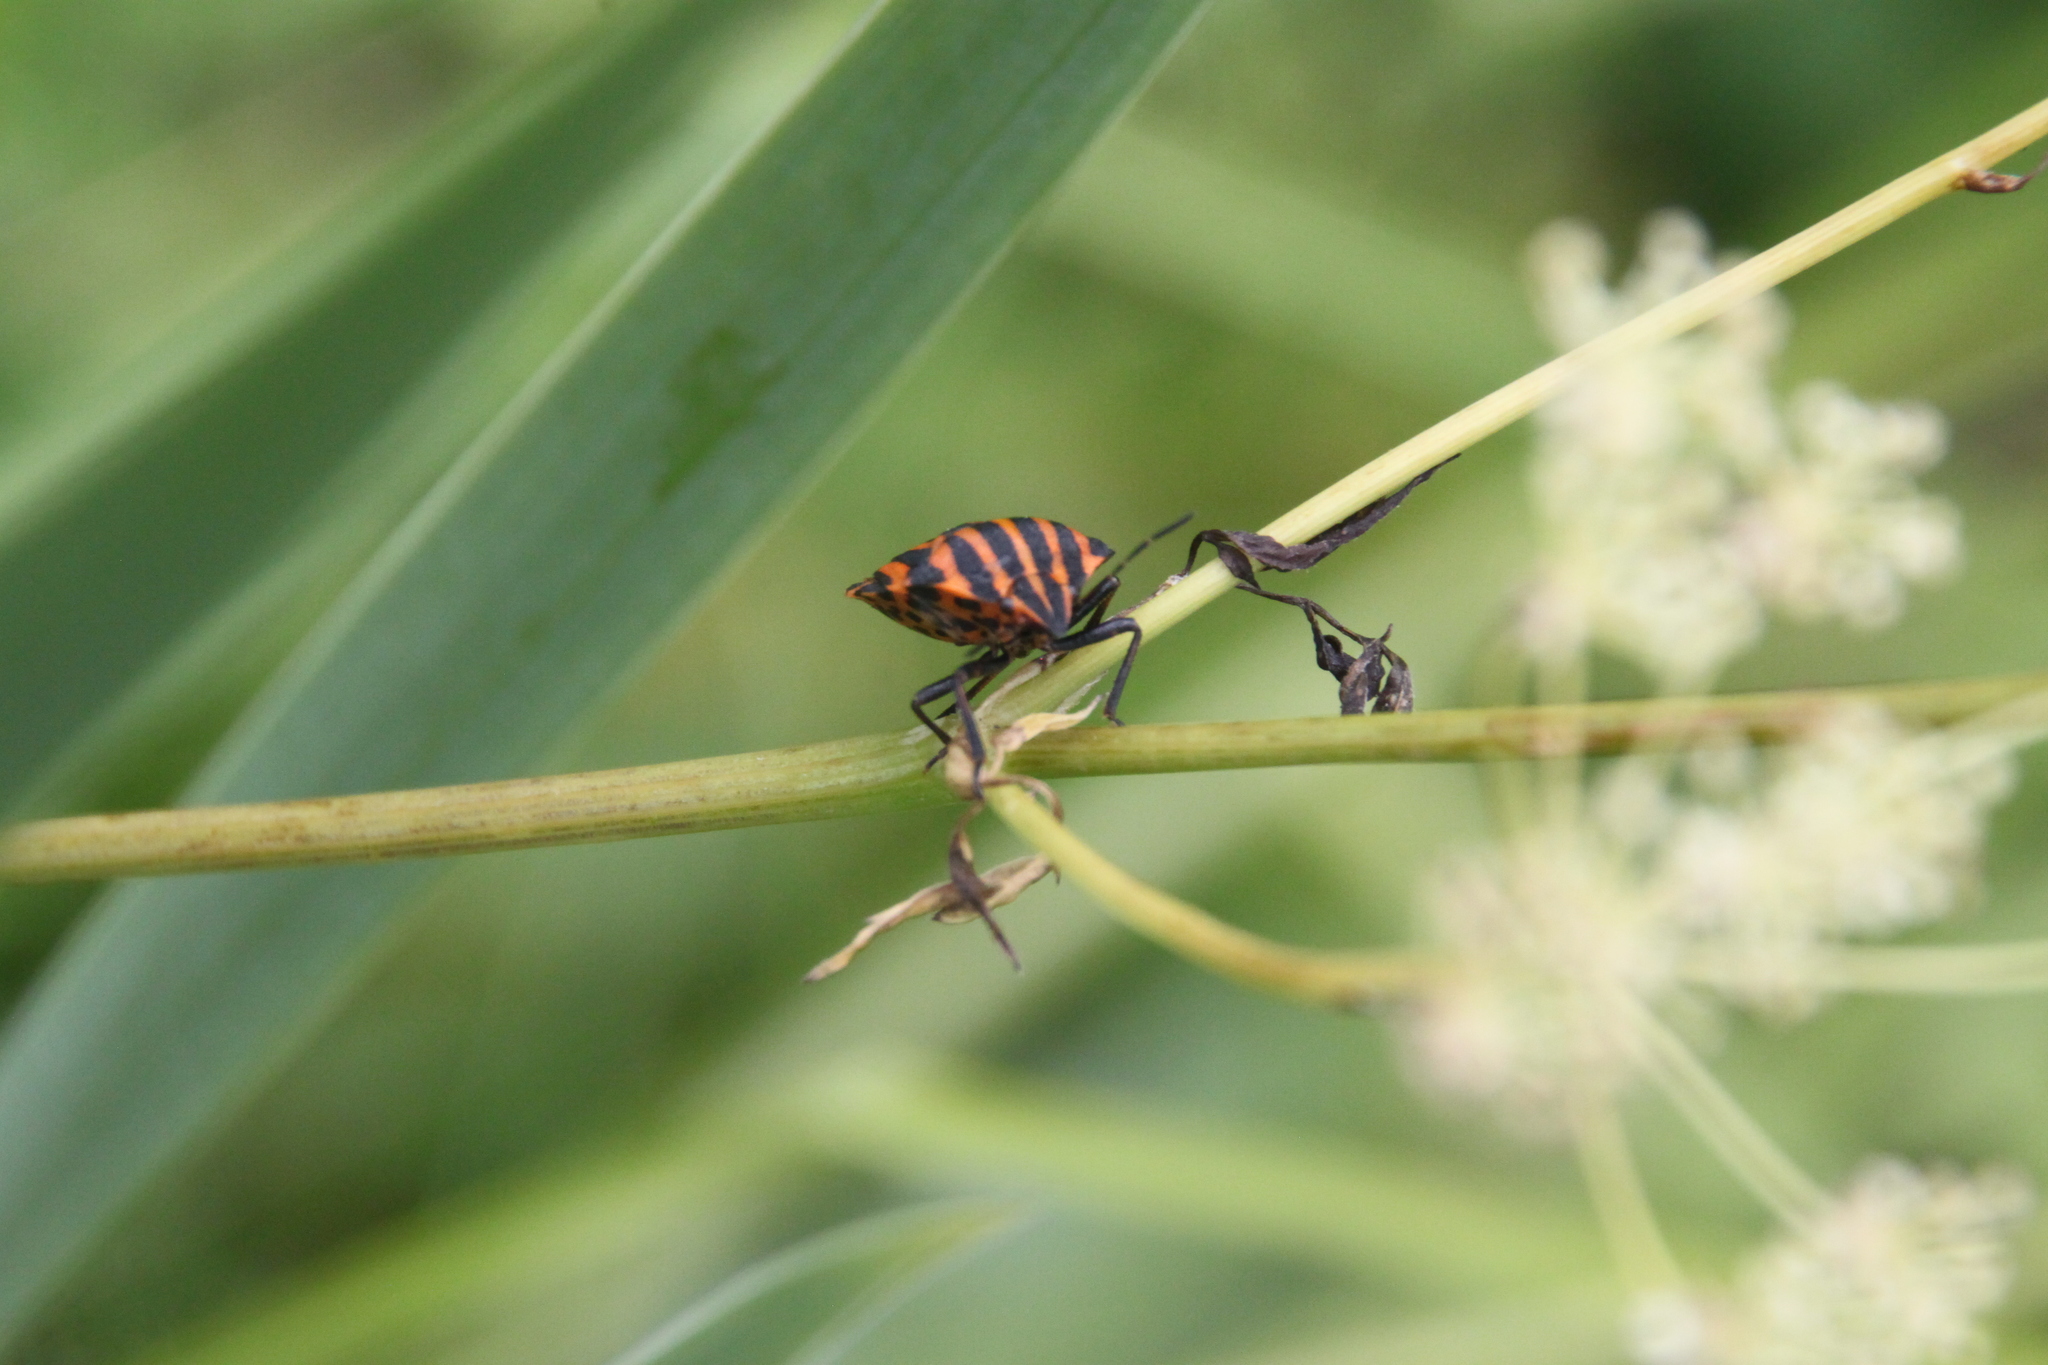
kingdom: Animalia
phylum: Arthropoda
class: Insecta
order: Hemiptera
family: Pentatomidae
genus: Graphosoma
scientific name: Graphosoma italicum
